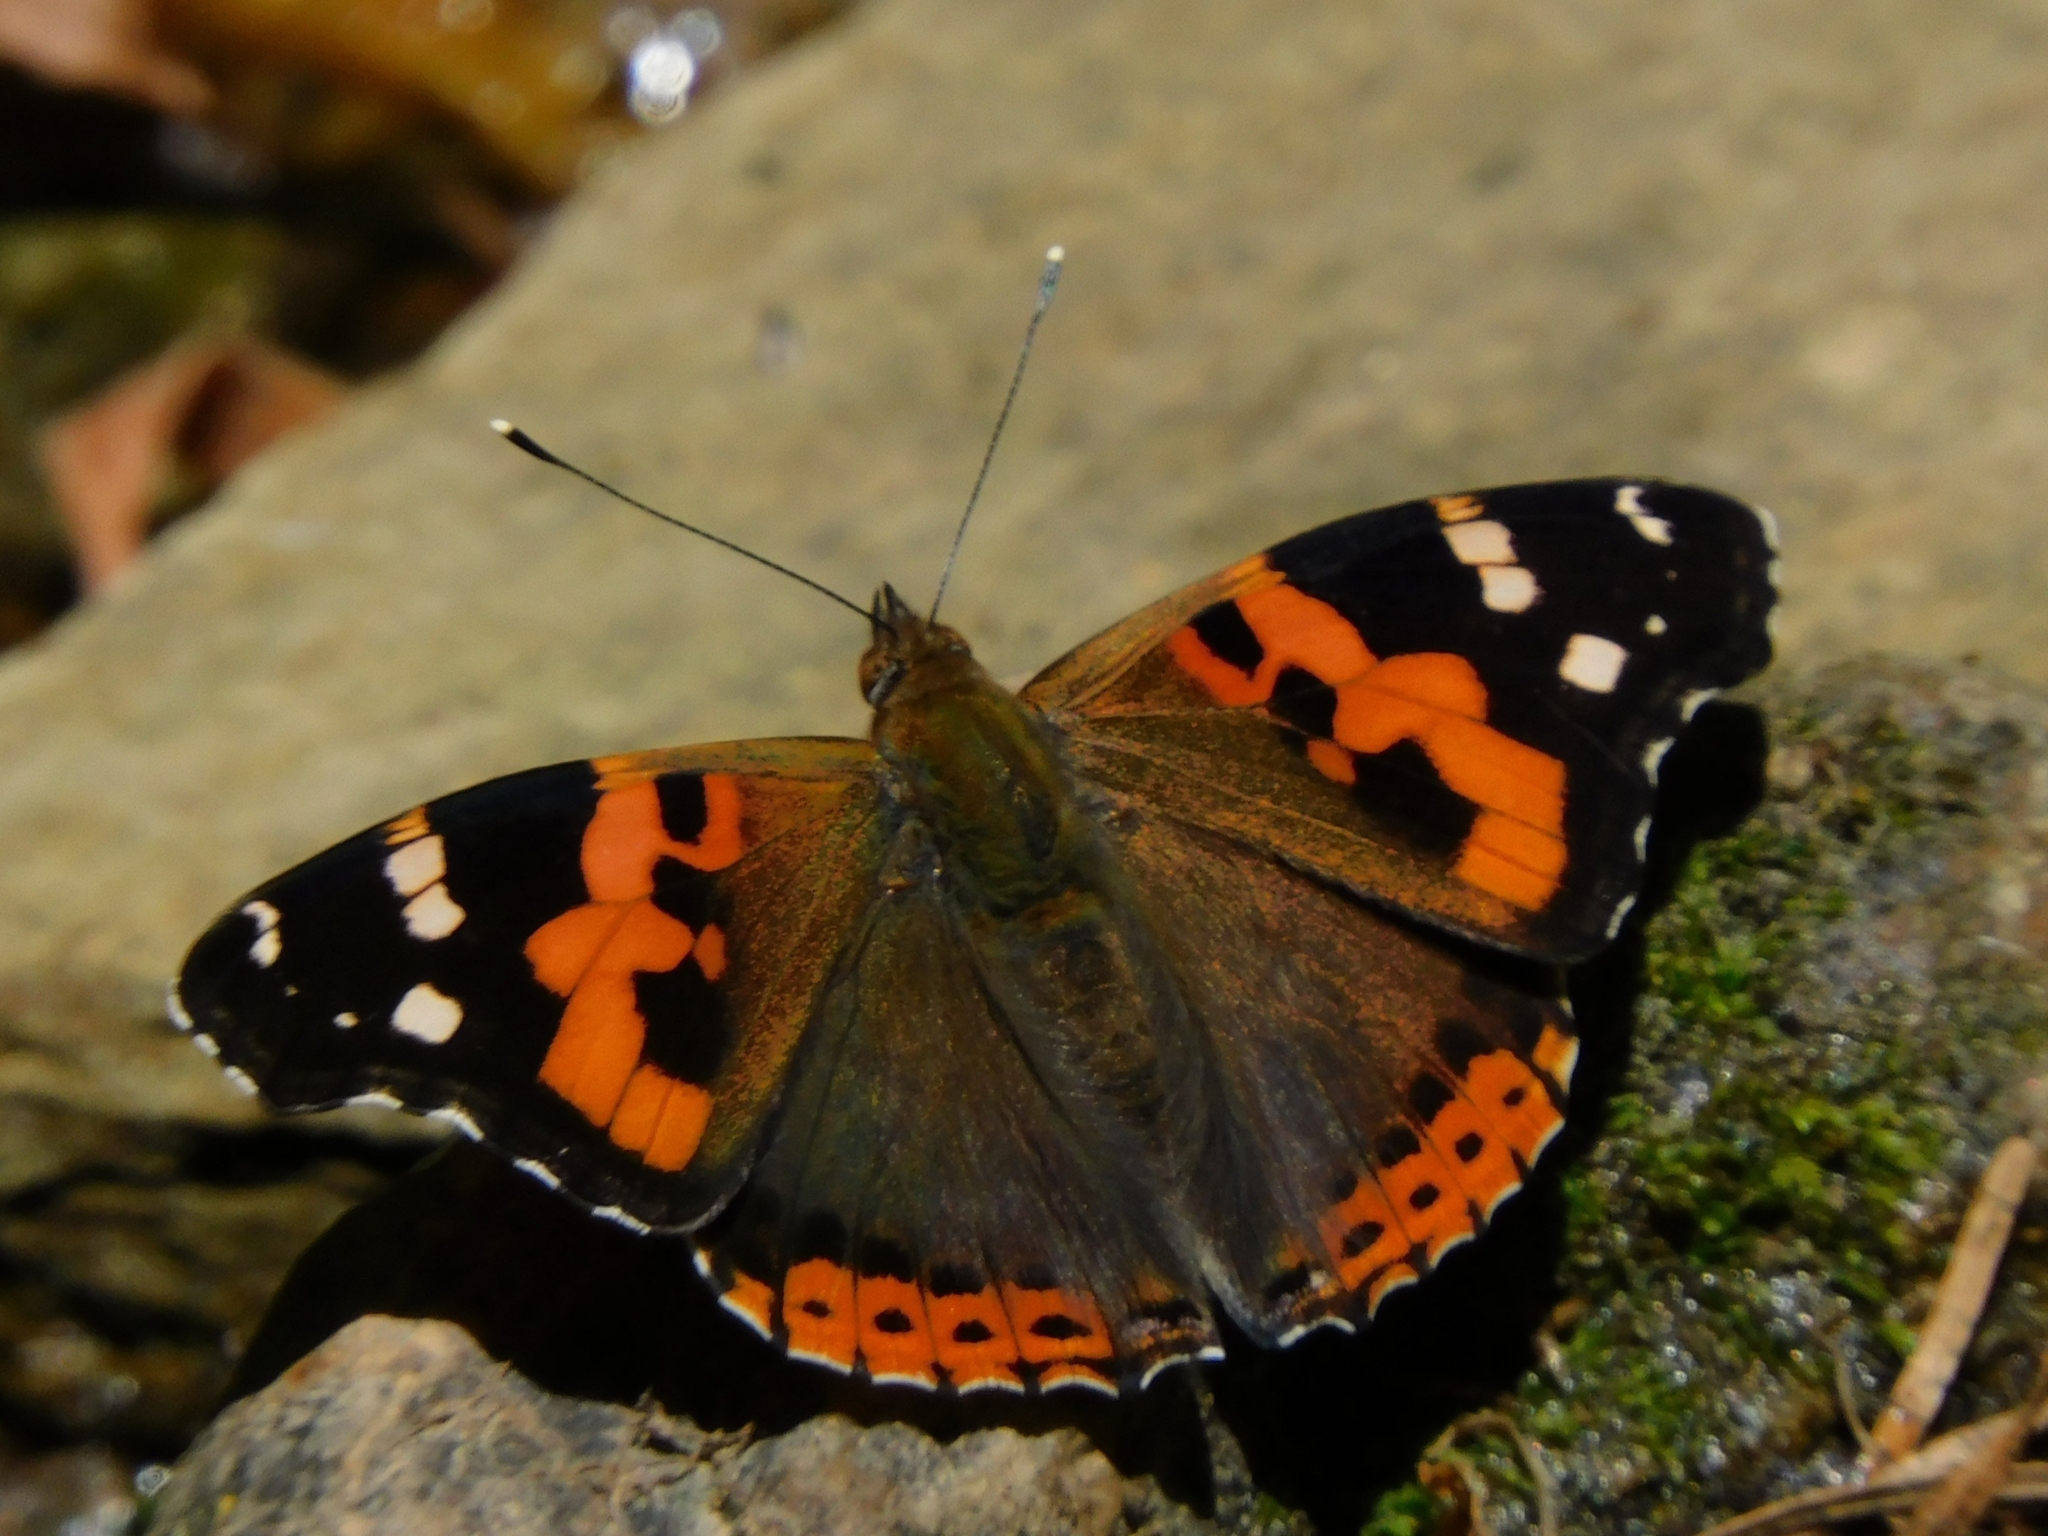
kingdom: Animalia
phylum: Arthropoda
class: Insecta
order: Lepidoptera
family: Nymphalidae
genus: Vanessa
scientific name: Vanessa indica
